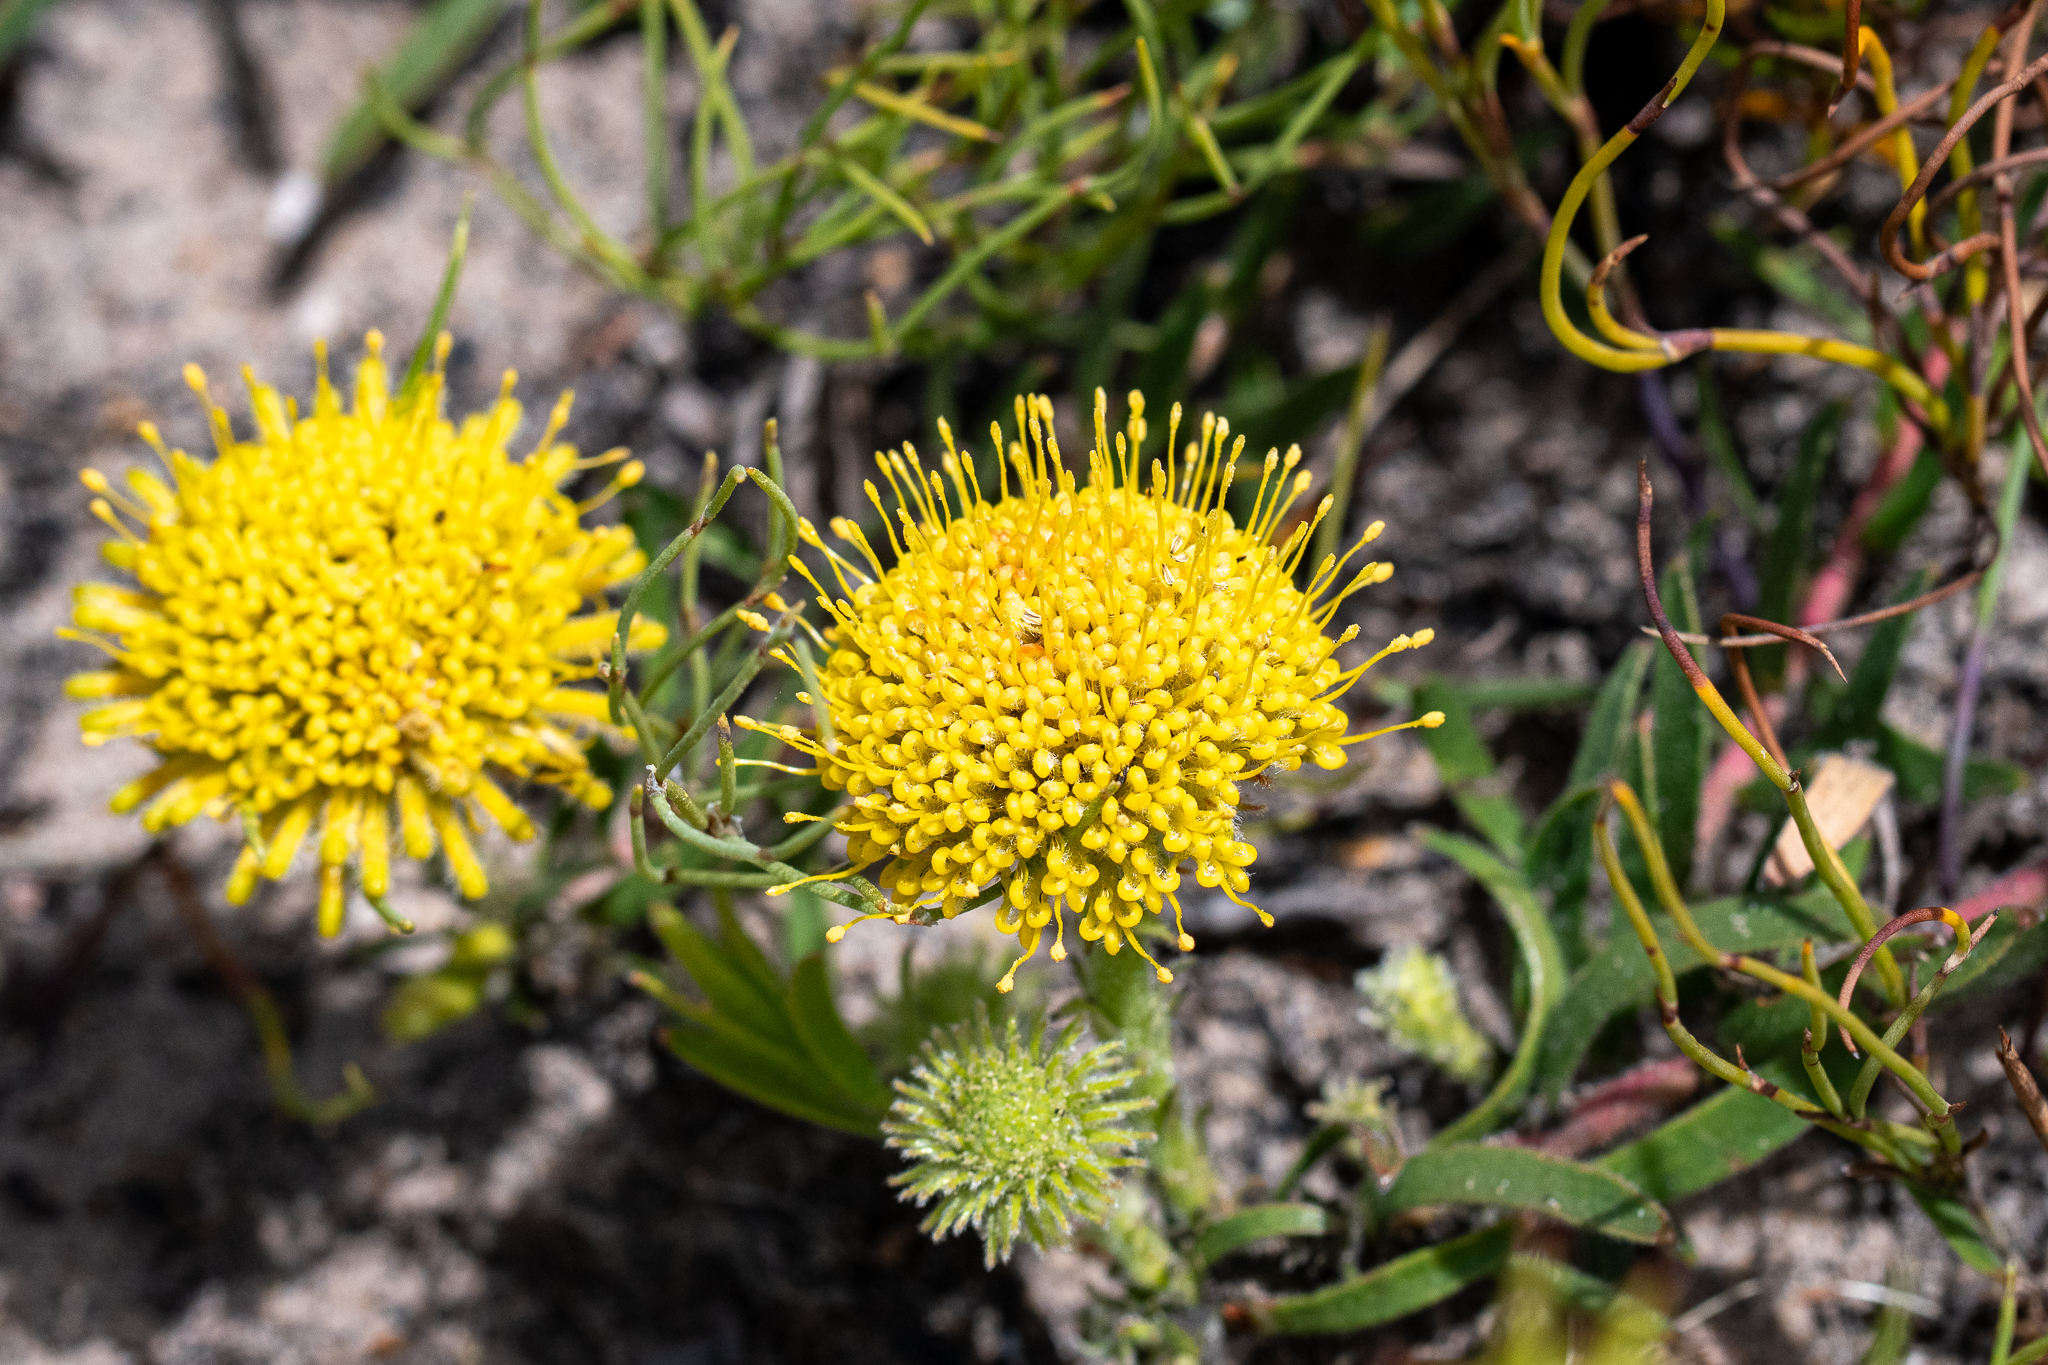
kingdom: Plantae
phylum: Tracheophyta
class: Magnoliopsida
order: Proteales
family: Proteaceae
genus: Leucospermum
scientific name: Leucospermum prostratum
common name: Yellow-trailing pincushion
